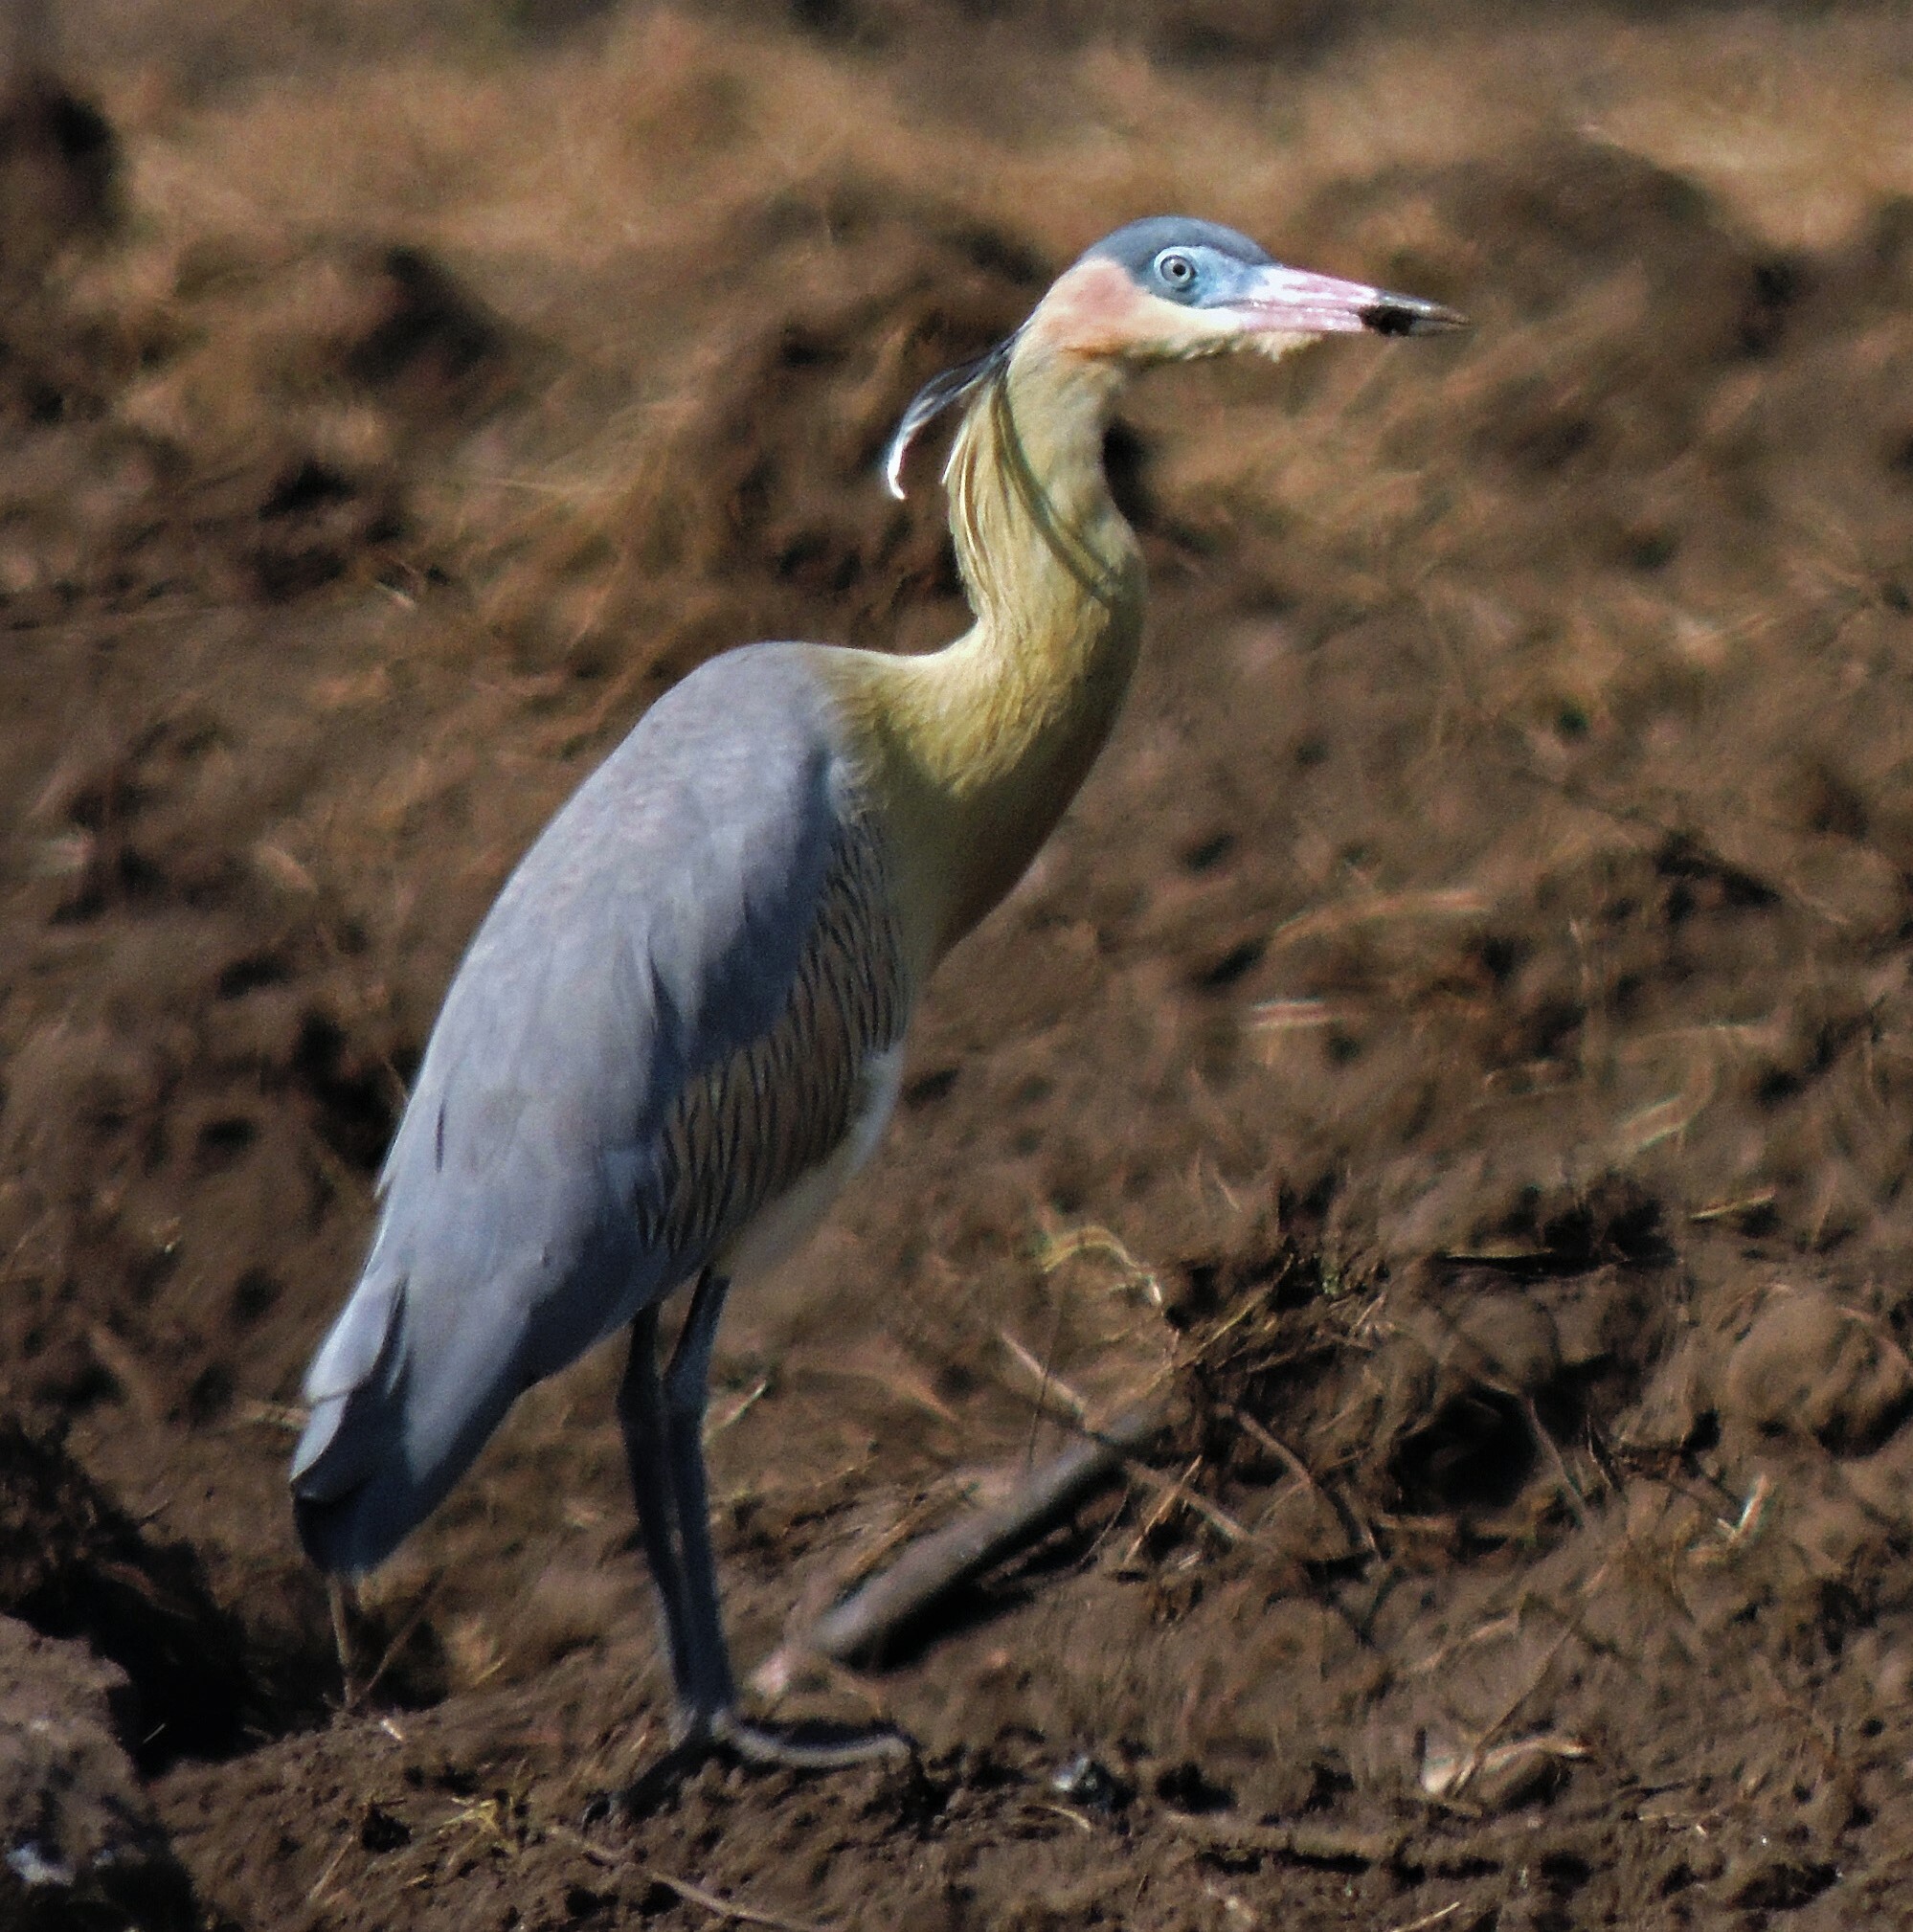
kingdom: Animalia
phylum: Chordata
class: Aves
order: Pelecaniformes
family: Ardeidae
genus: Syrigma
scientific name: Syrigma sibilatrix
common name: Whistling heron
